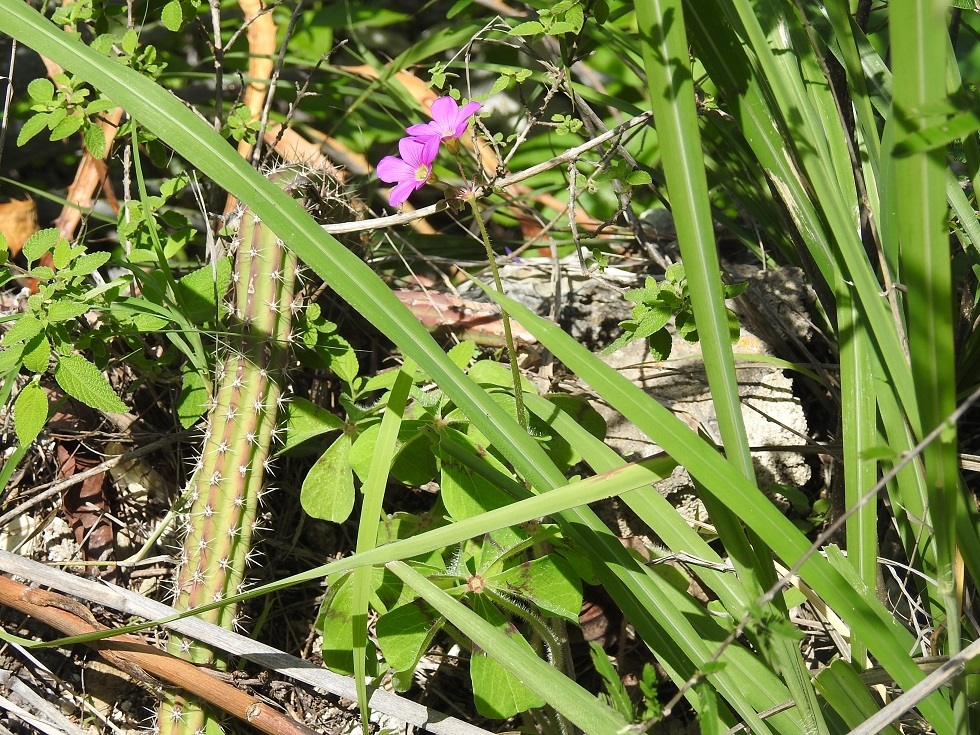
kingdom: Plantae
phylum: Tracheophyta
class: Magnoliopsida
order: Oxalidales
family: Oxalidaceae
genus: Oxalis
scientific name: Oxalis nelsonii
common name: Sorrel
